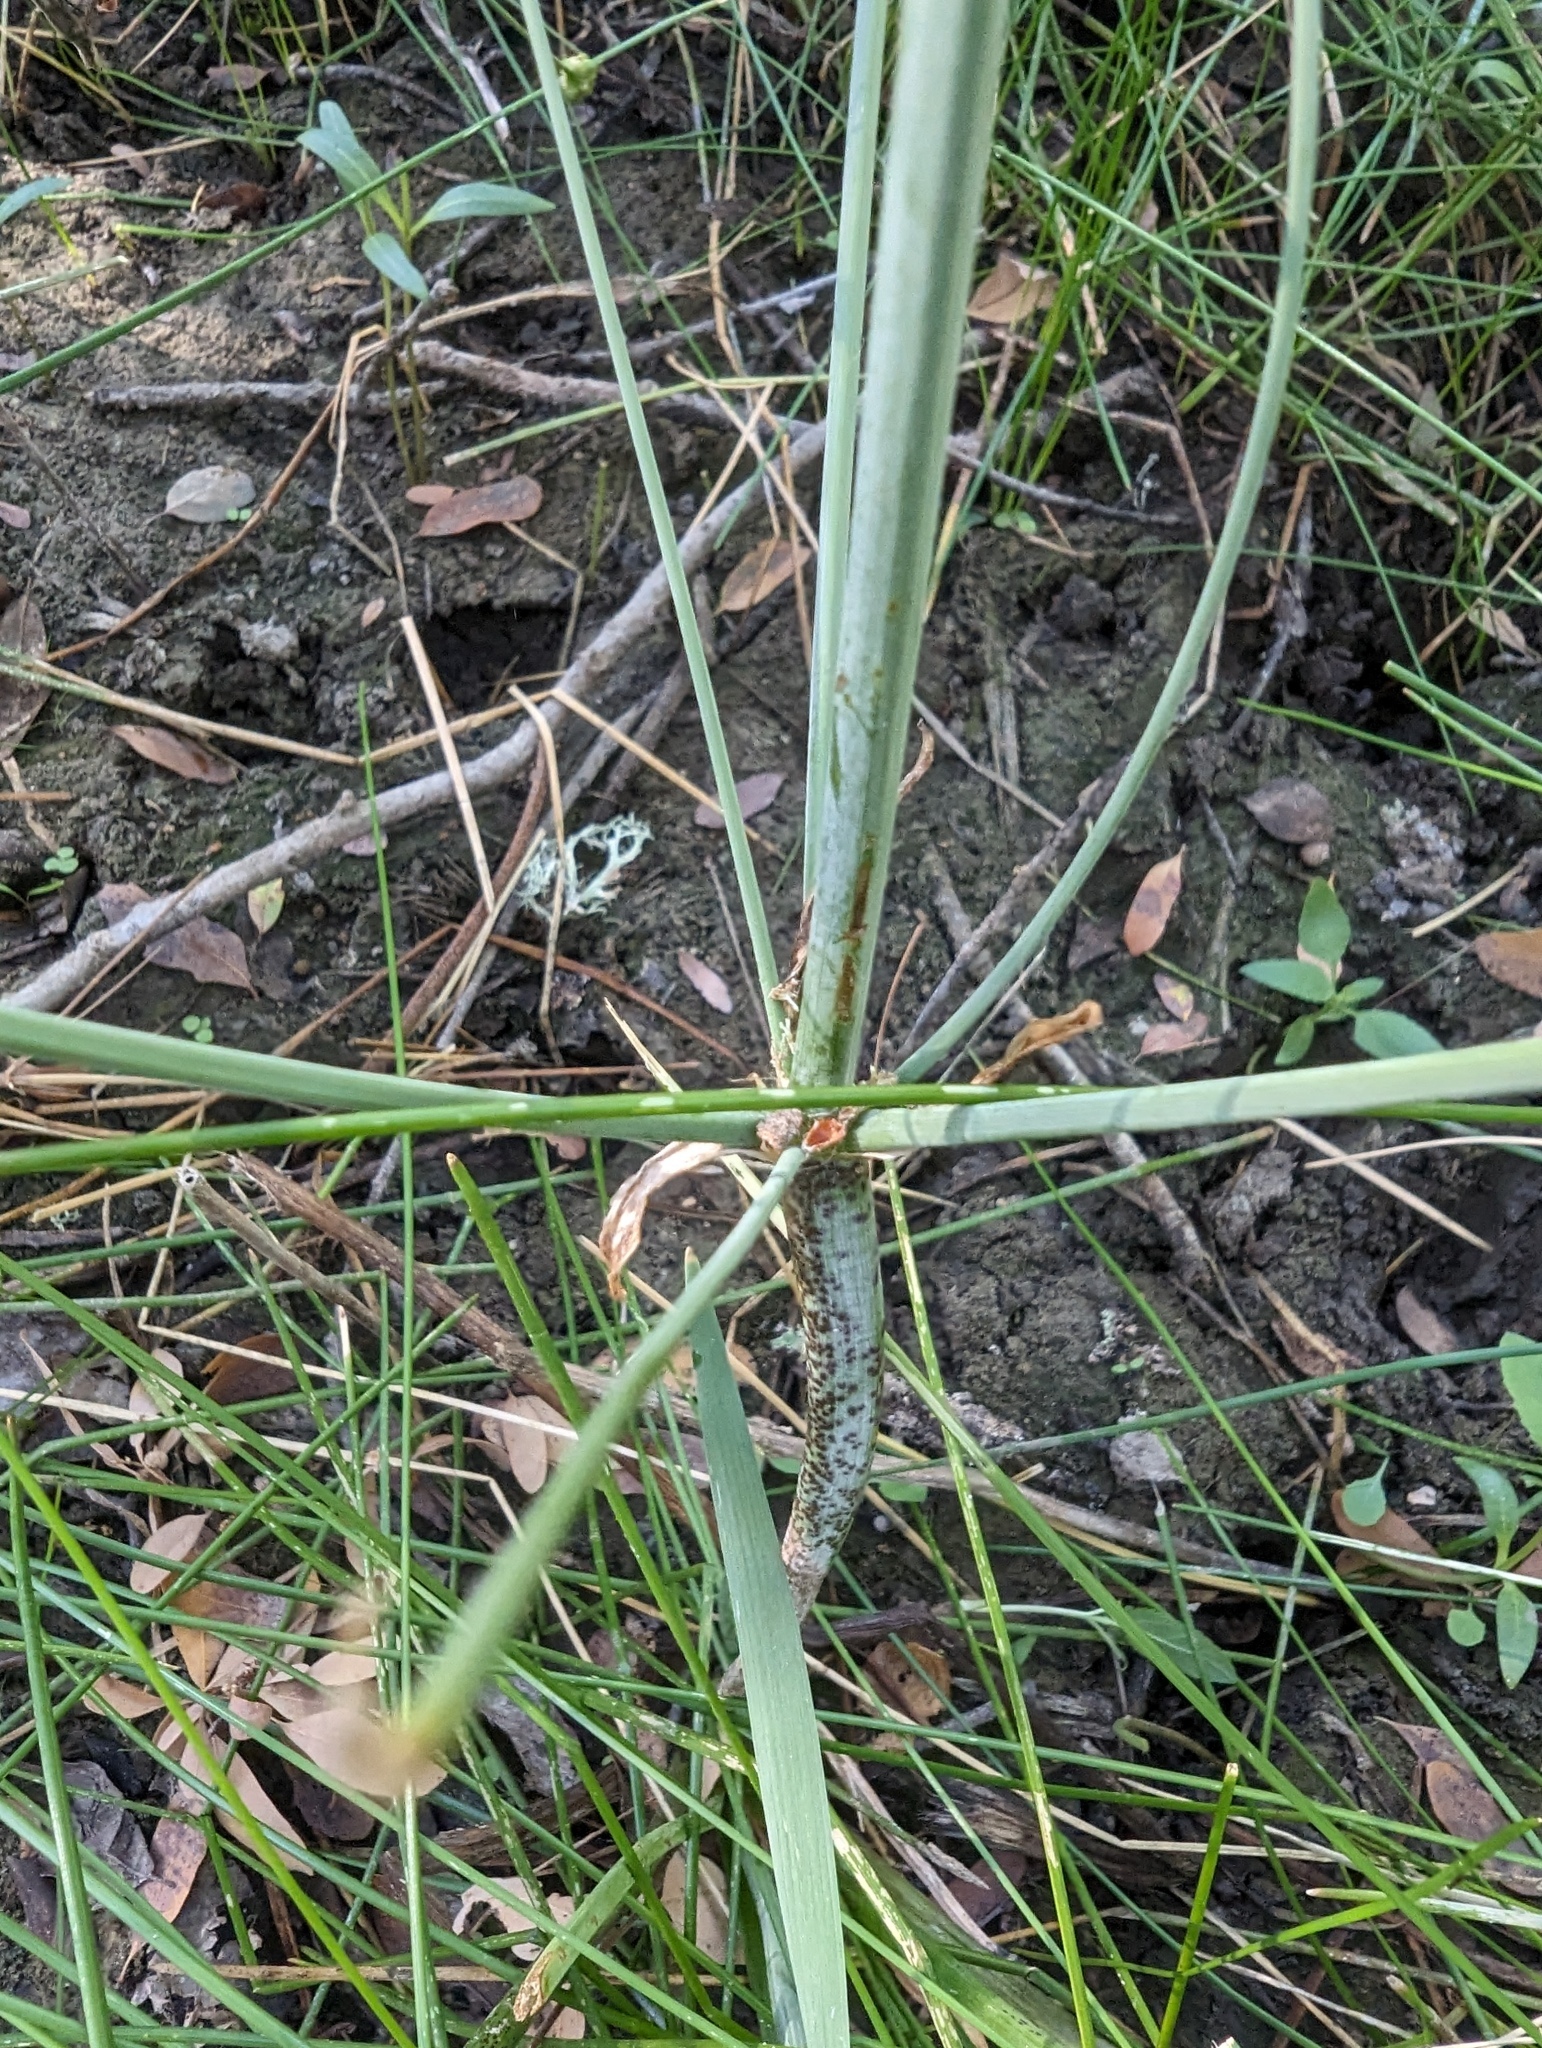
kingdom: Plantae
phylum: Tracheophyta
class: Liliopsida
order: Alismatales
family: Alismataceae
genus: Alisma
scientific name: Alisma triviale
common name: Northern water-plantain
